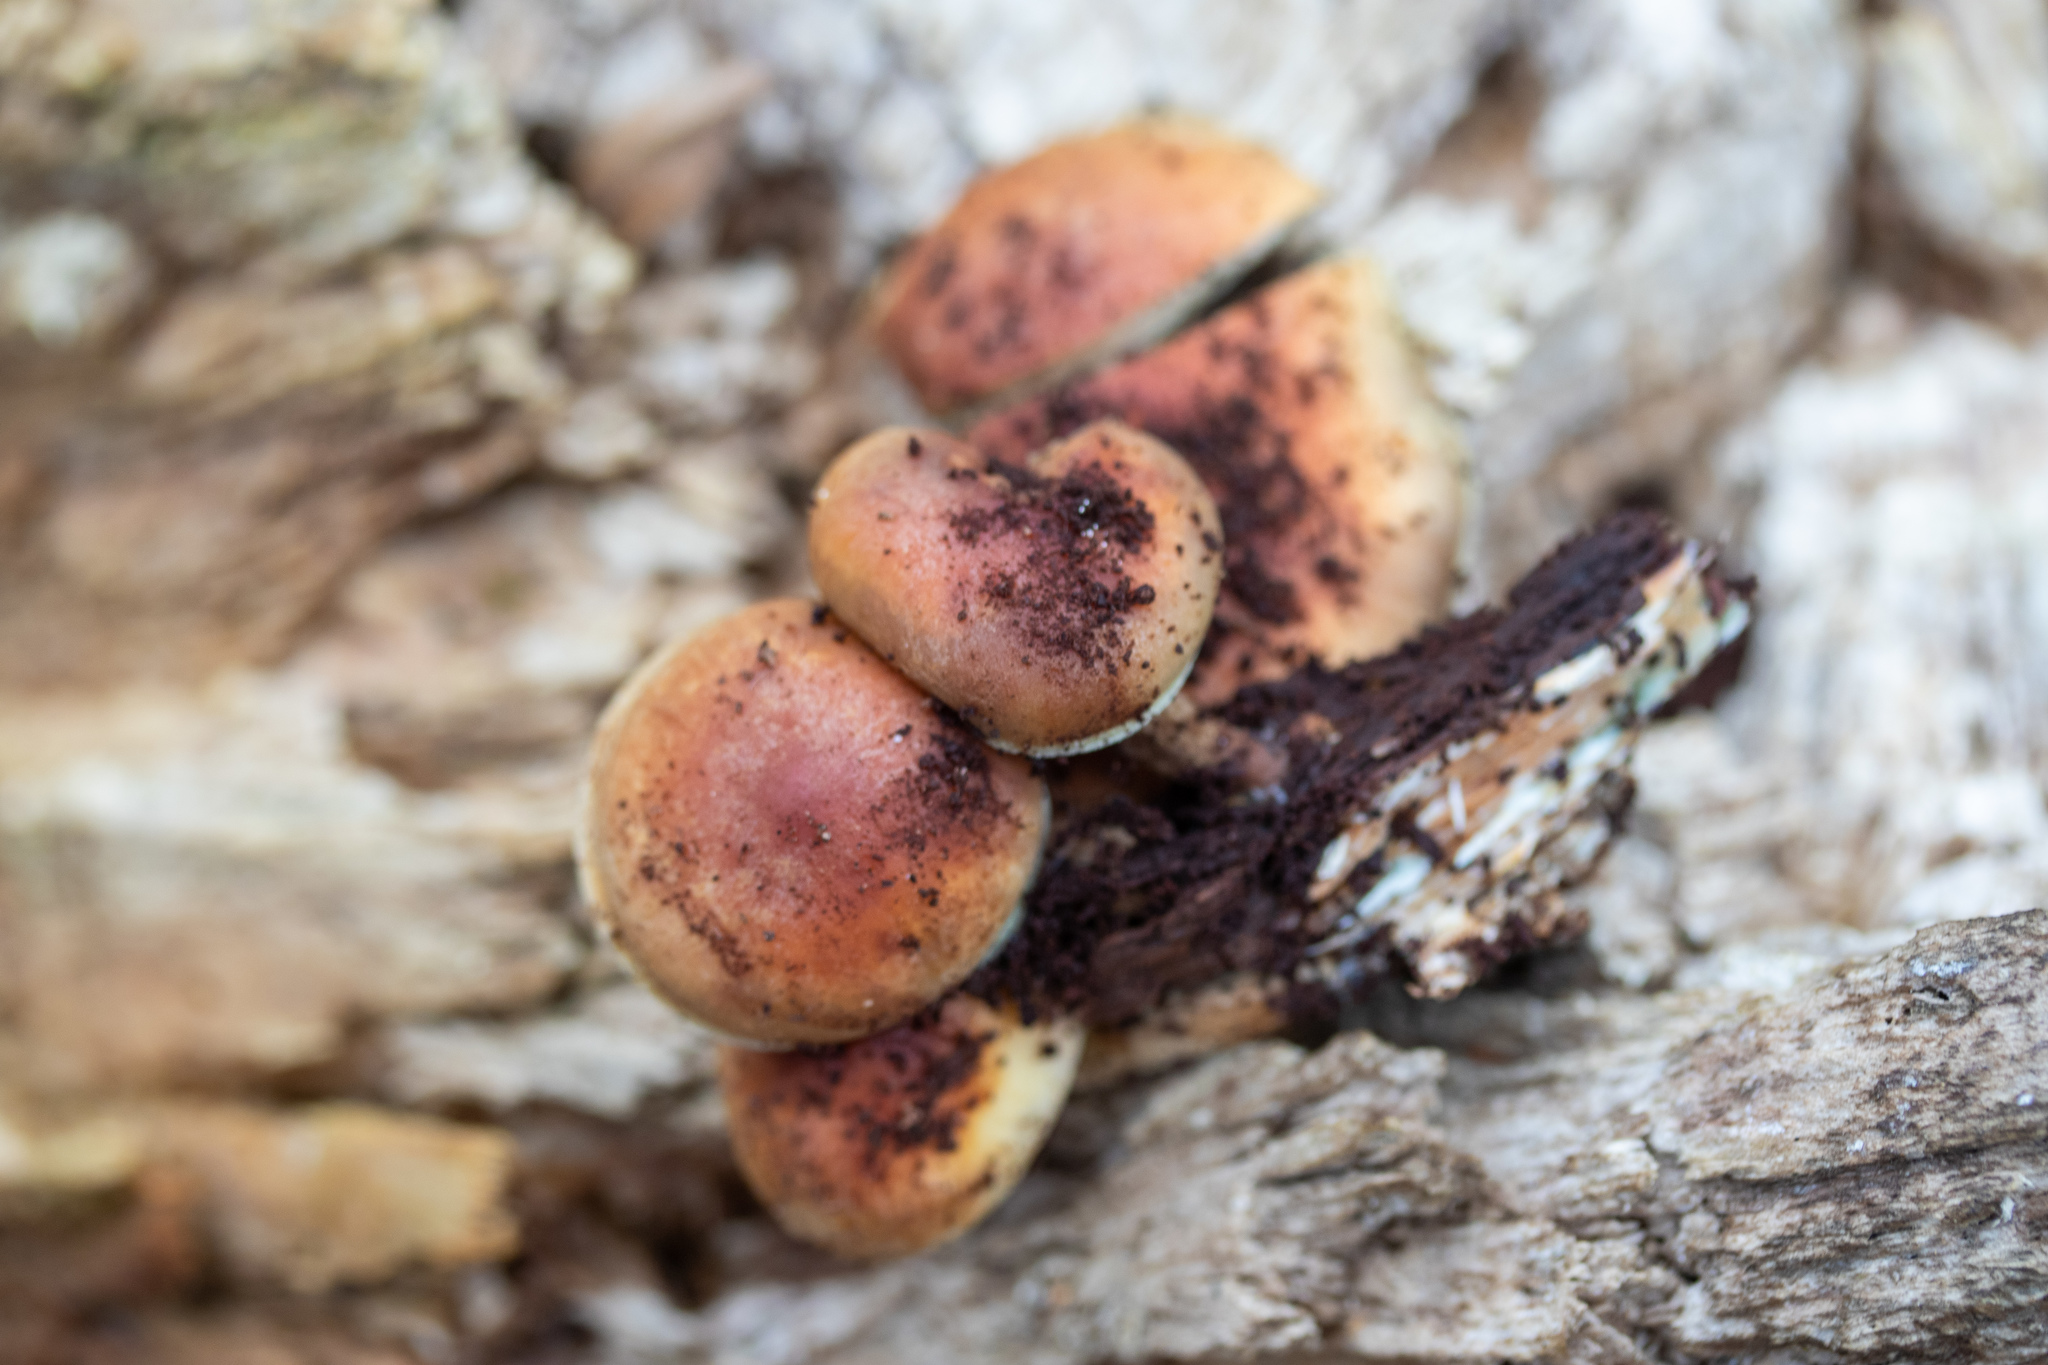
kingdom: Fungi
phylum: Basidiomycota
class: Agaricomycetes
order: Agaricales
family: Strophariaceae
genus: Hypholoma
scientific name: Hypholoma lateritium
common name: Brick caps
